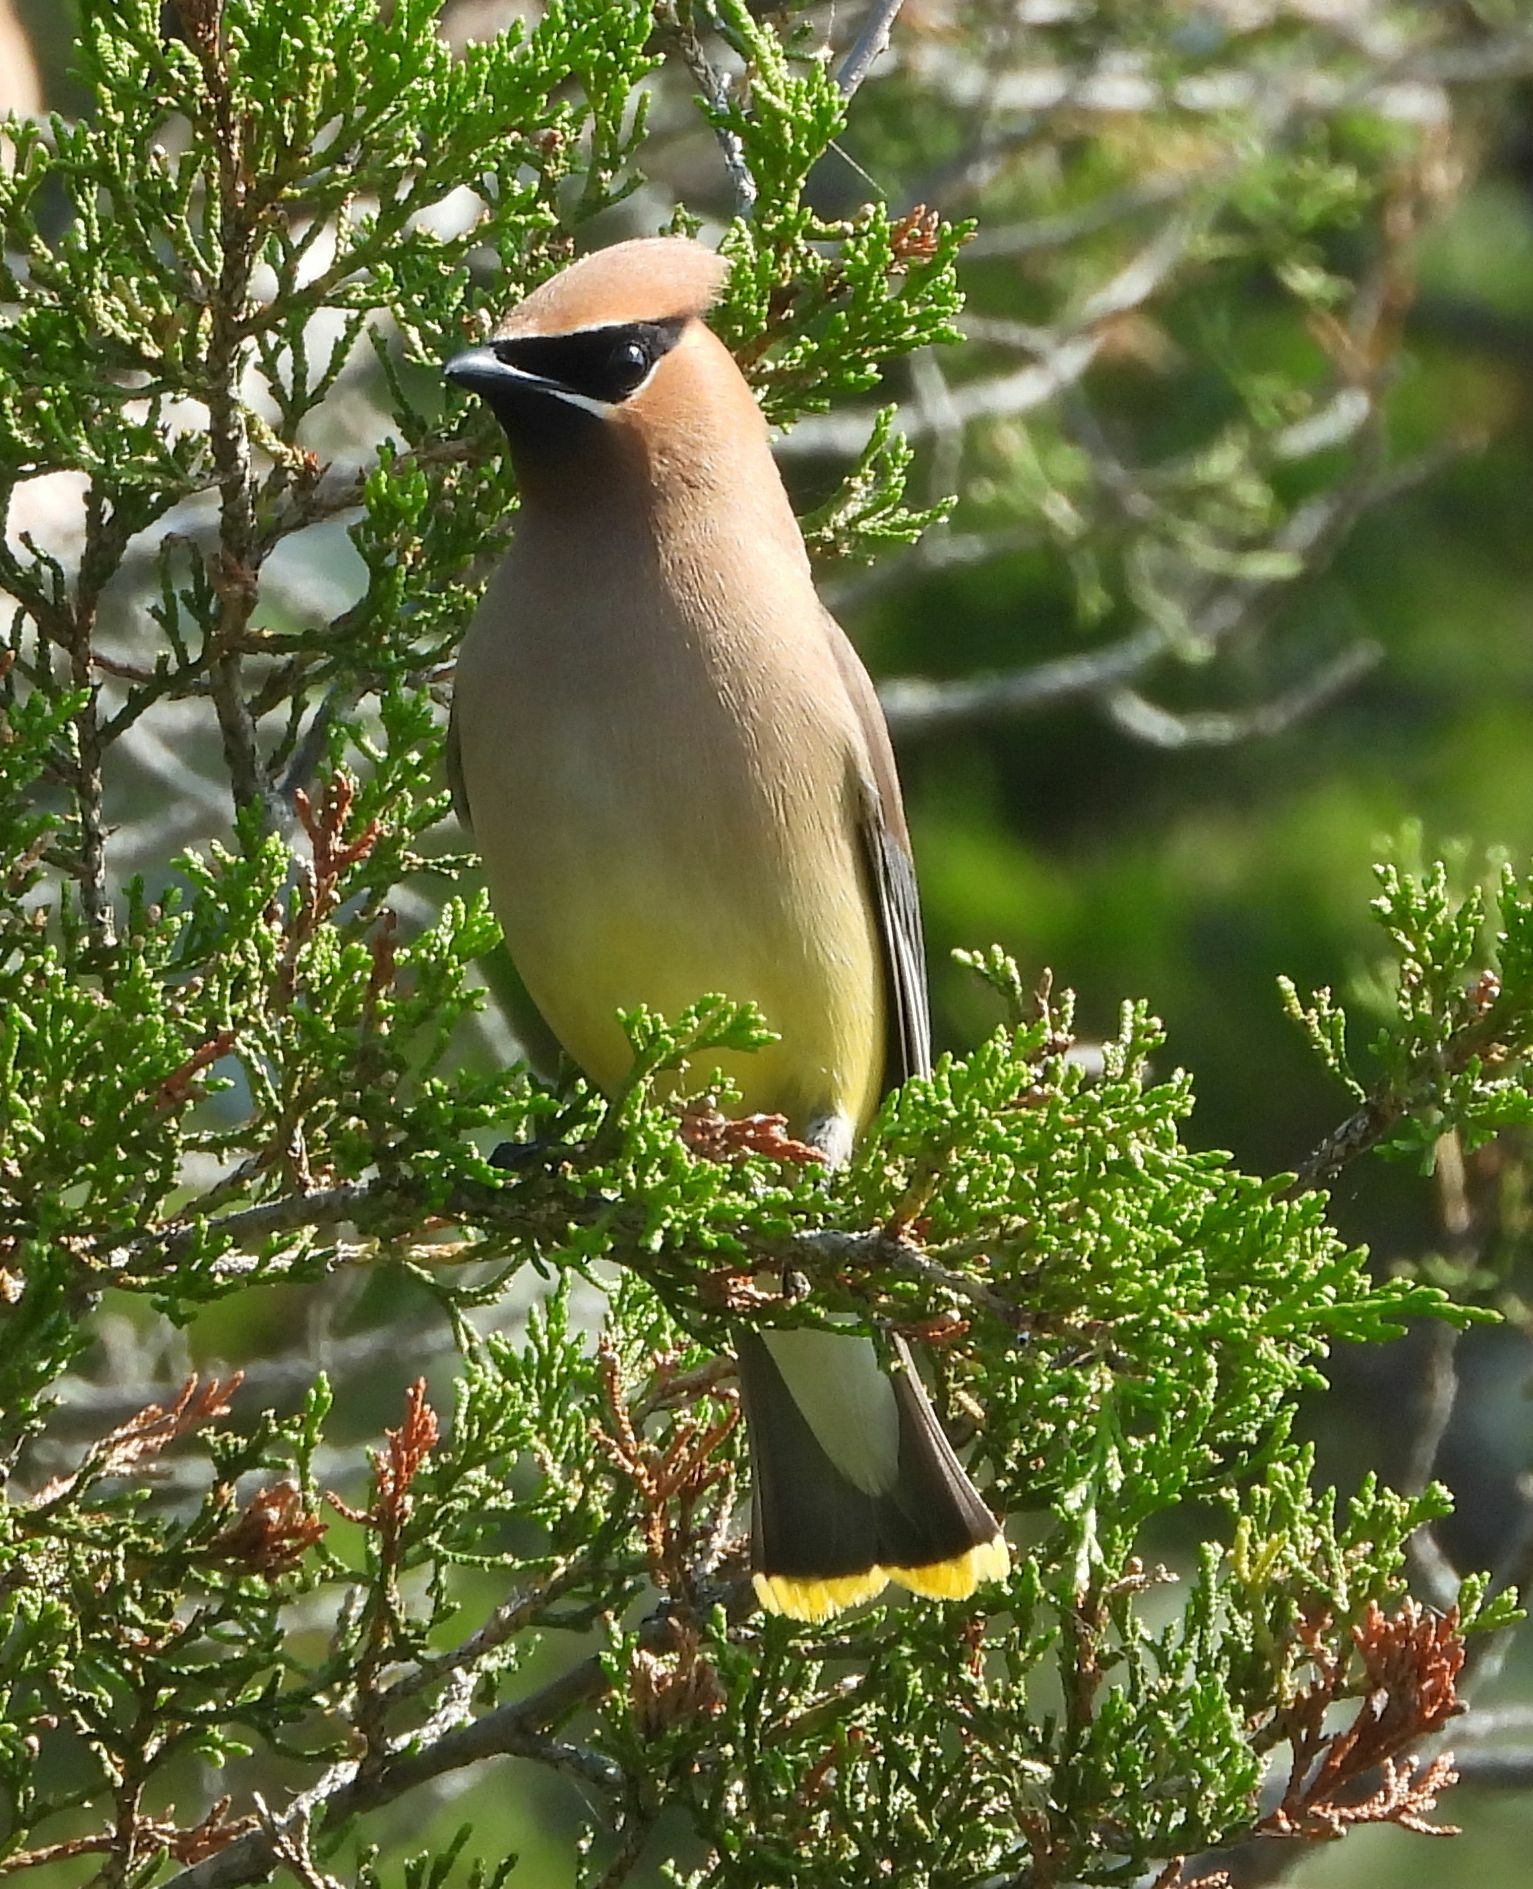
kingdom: Animalia
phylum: Chordata
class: Aves
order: Passeriformes
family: Bombycillidae
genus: Bombycilla
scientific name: Bombycilla cedrorum
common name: Cedar waxwing
